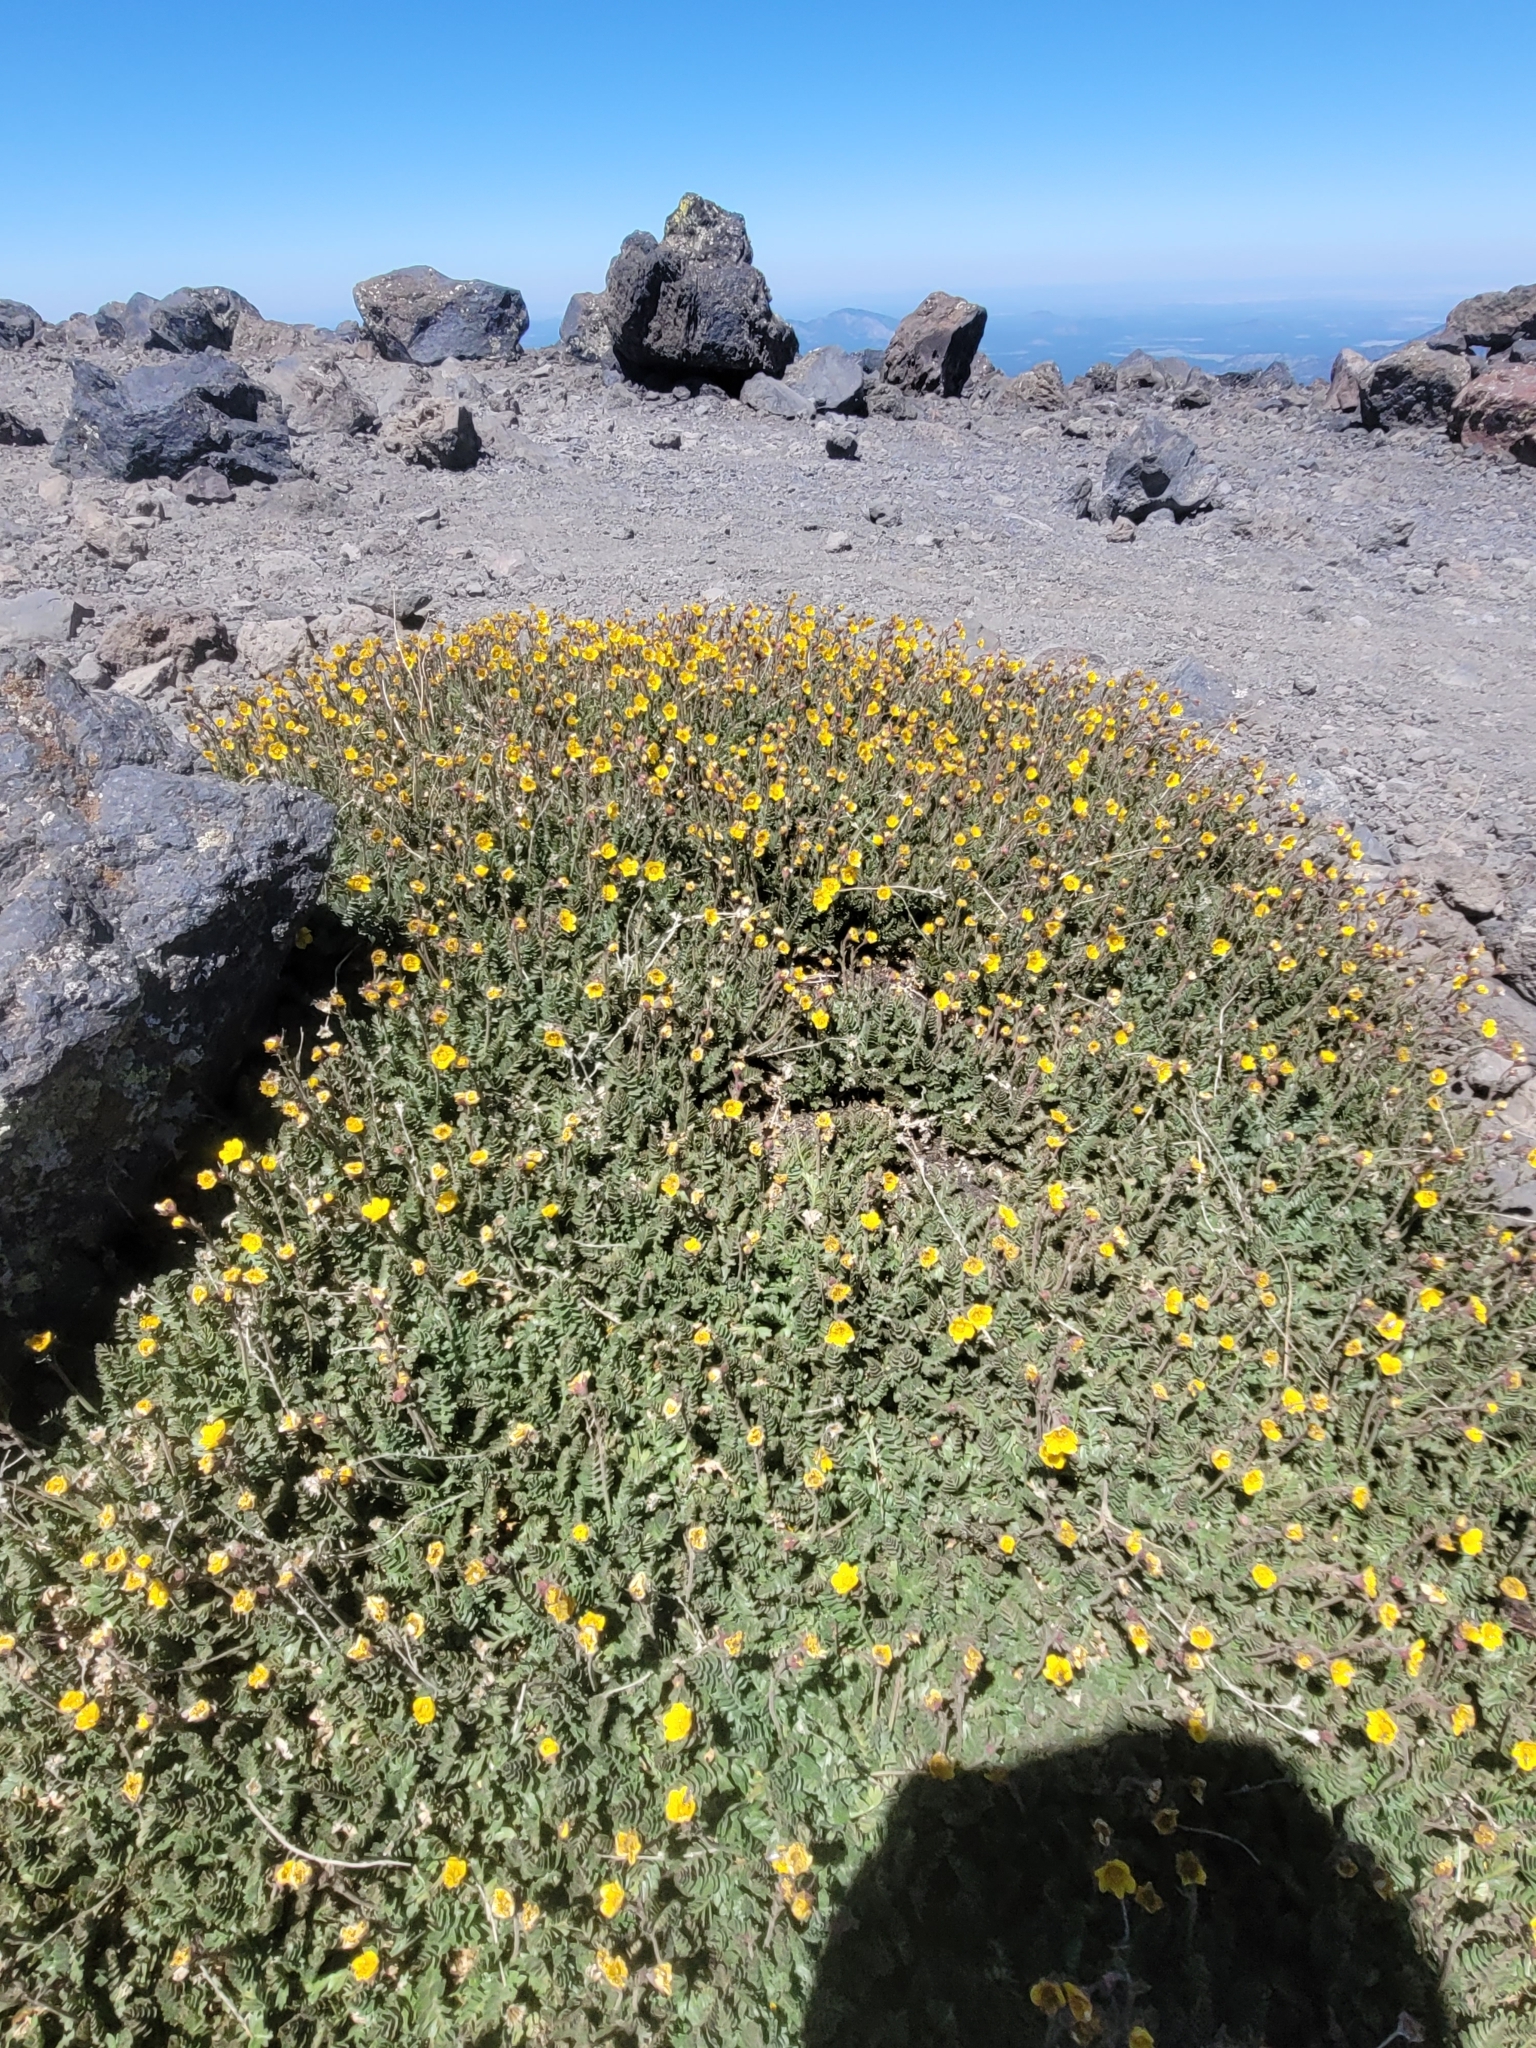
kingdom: Plantae
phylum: Tracheophyta
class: Magnoliopsida
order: Rosales
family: Rosaceae
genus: Geum
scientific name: Geum rossii
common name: Alpine avens
